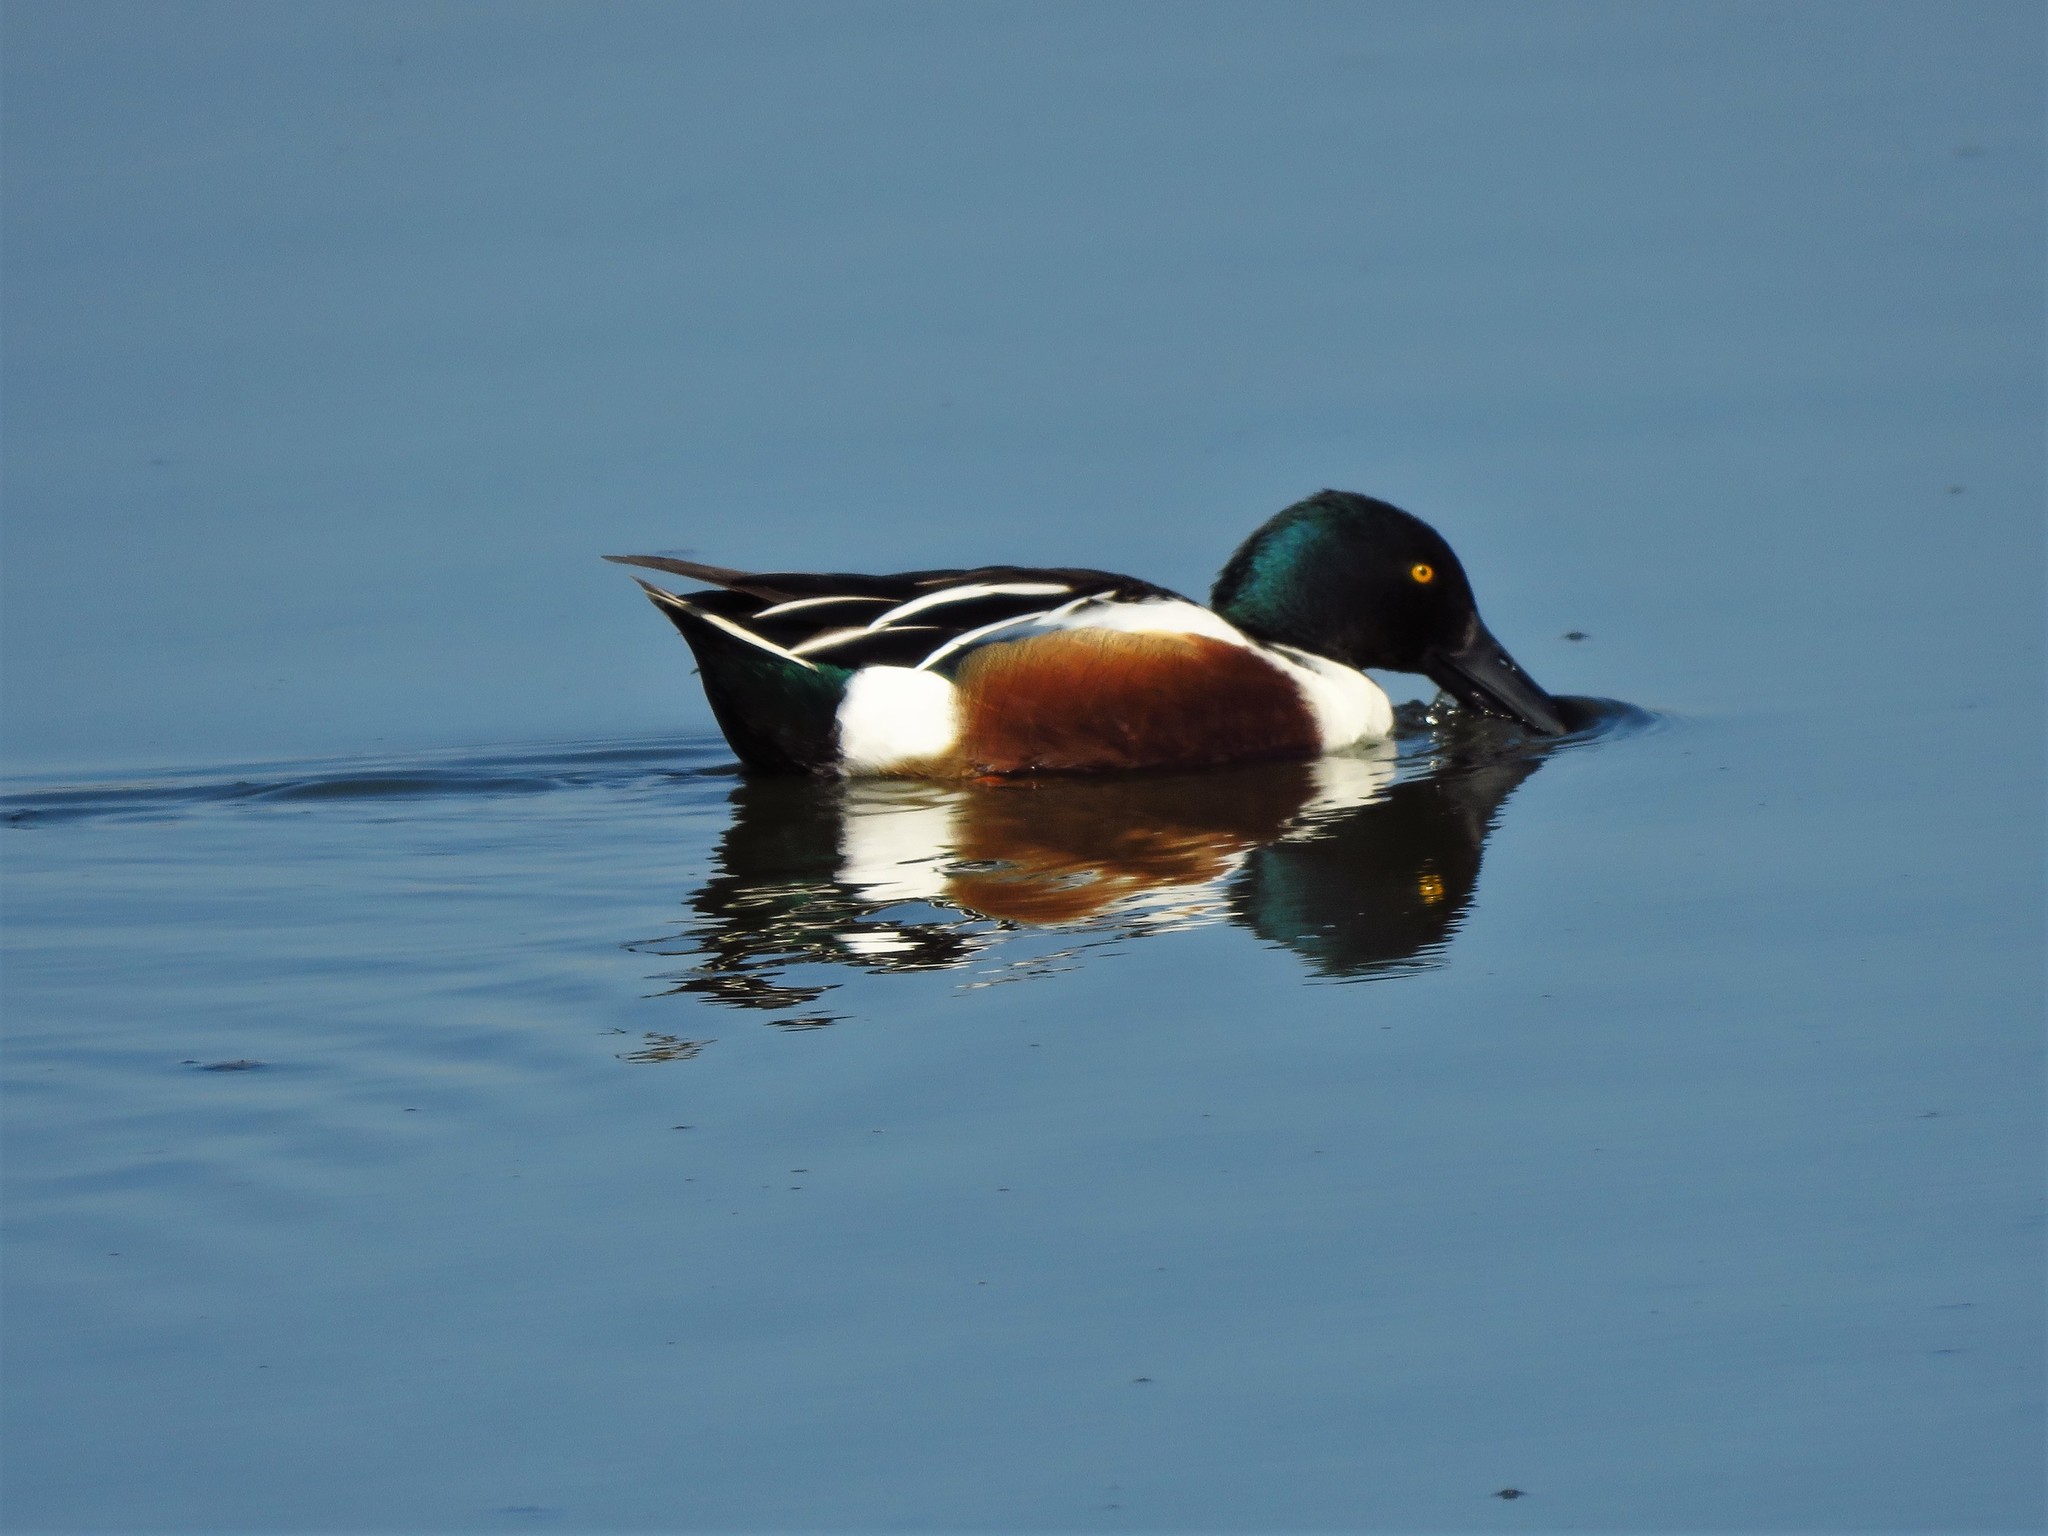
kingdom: Animalia
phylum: Chordata
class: Aves
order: Anseriformes
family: Anatidae
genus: Spatula
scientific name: Spatula clypeata
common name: Northern shoveler
